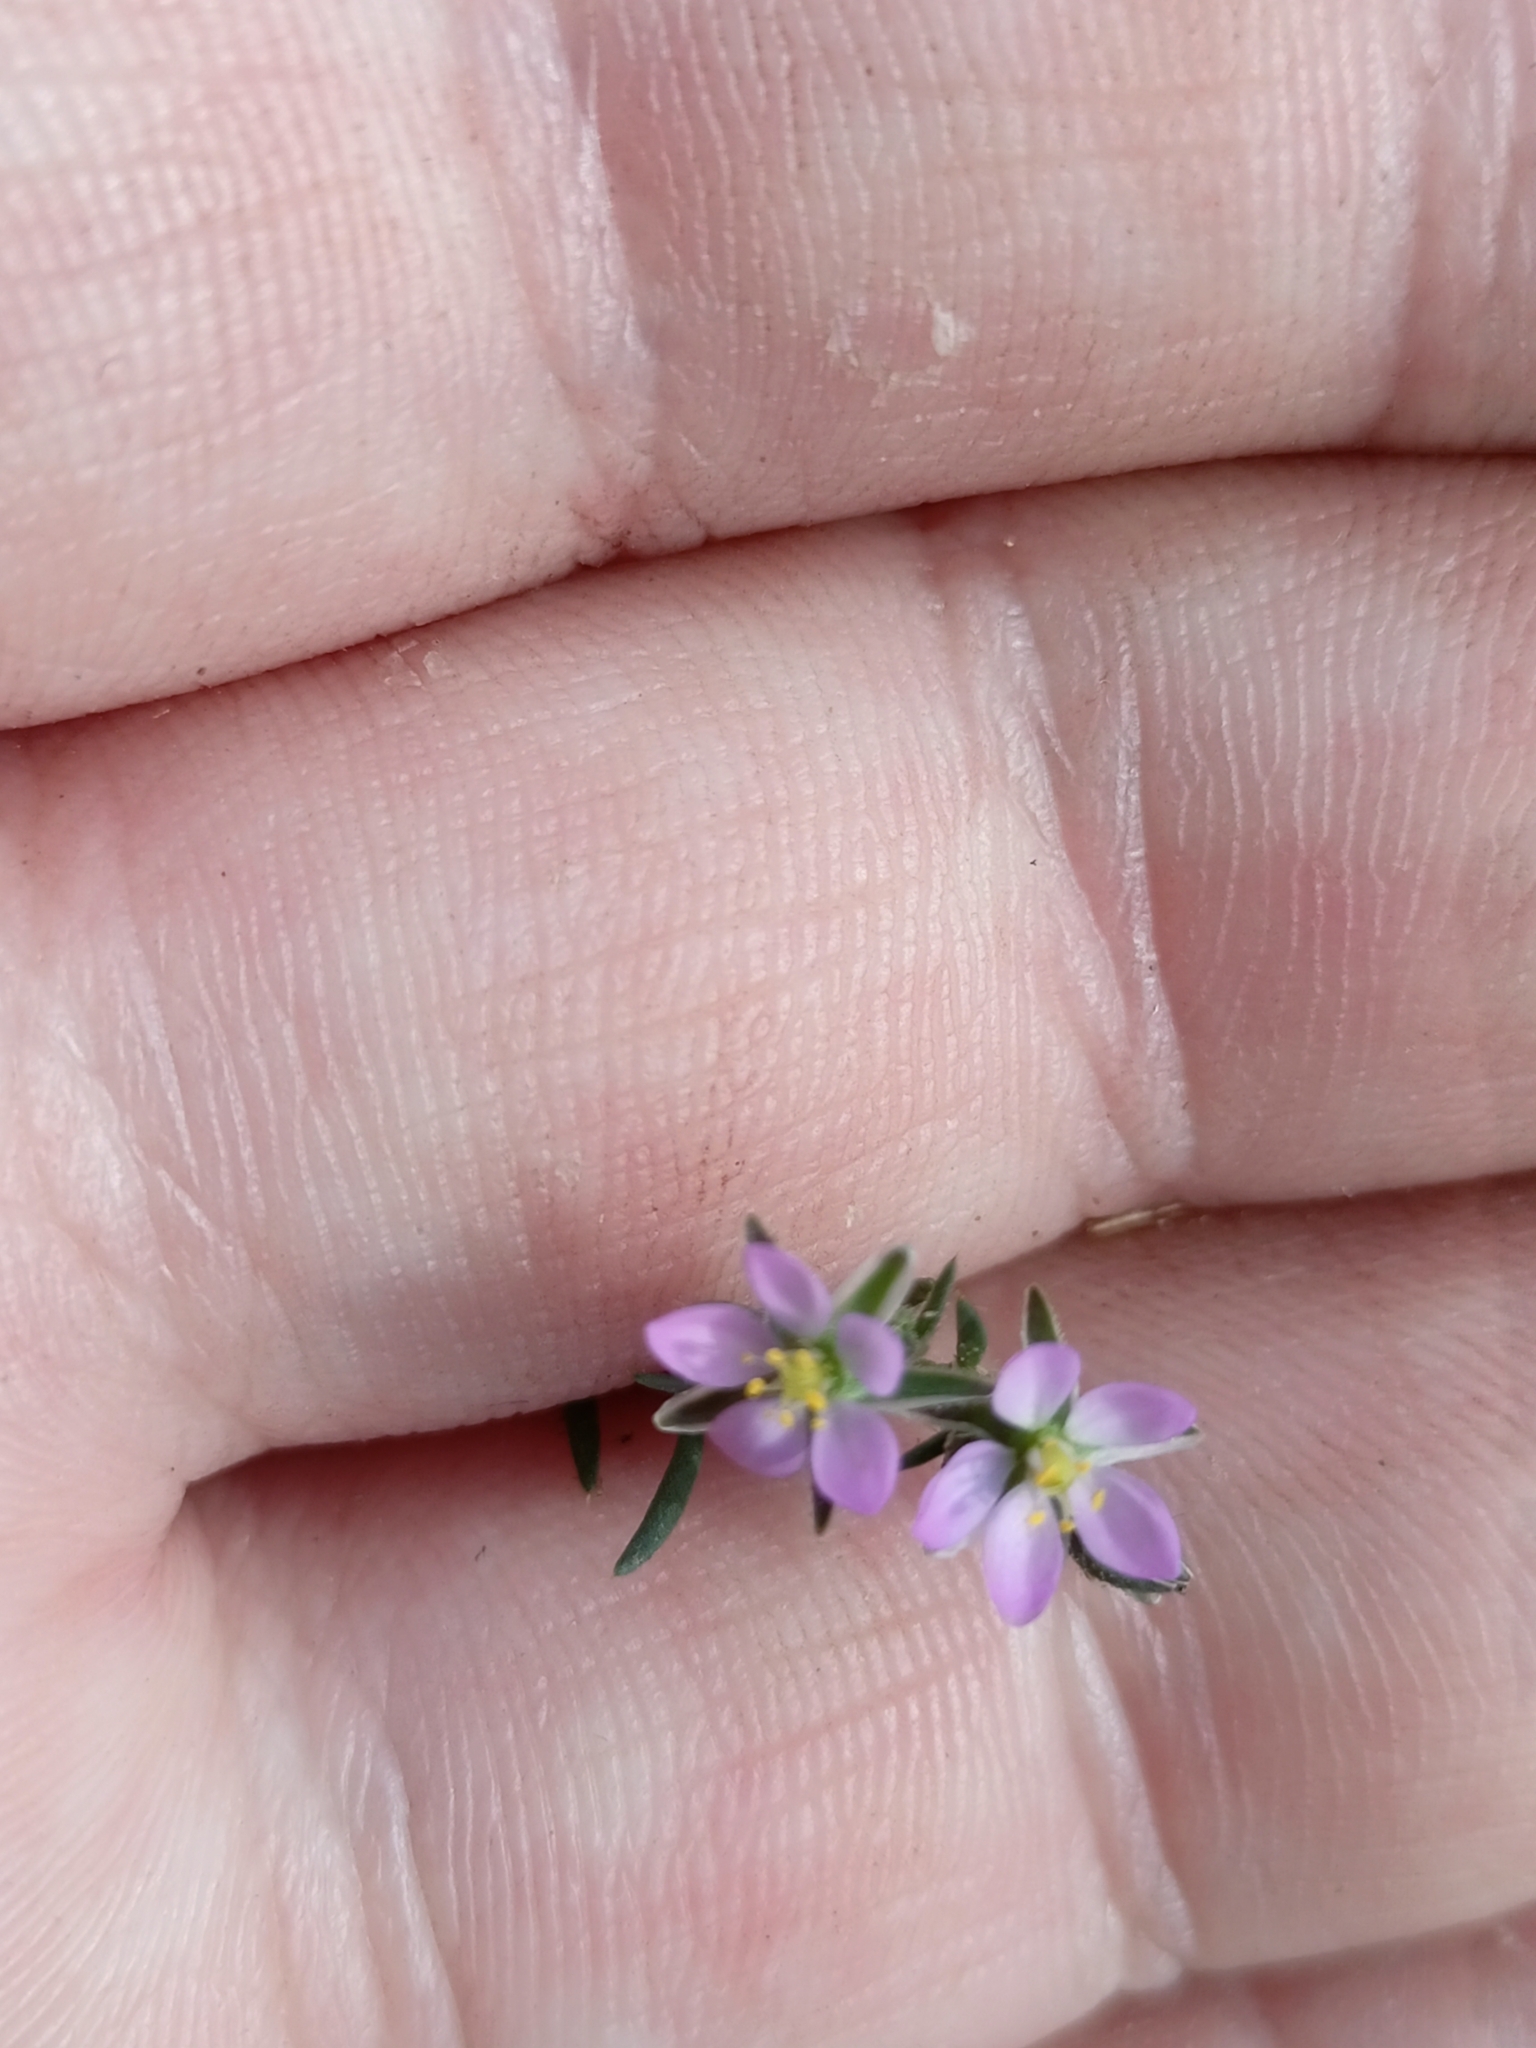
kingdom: Plantae
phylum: Tracheophyta
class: Magnoliopsida
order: Caryophyllales
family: Caryophyllaceae
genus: Spergularia
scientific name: Spergularia rubra
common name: Red sand-spurrey
